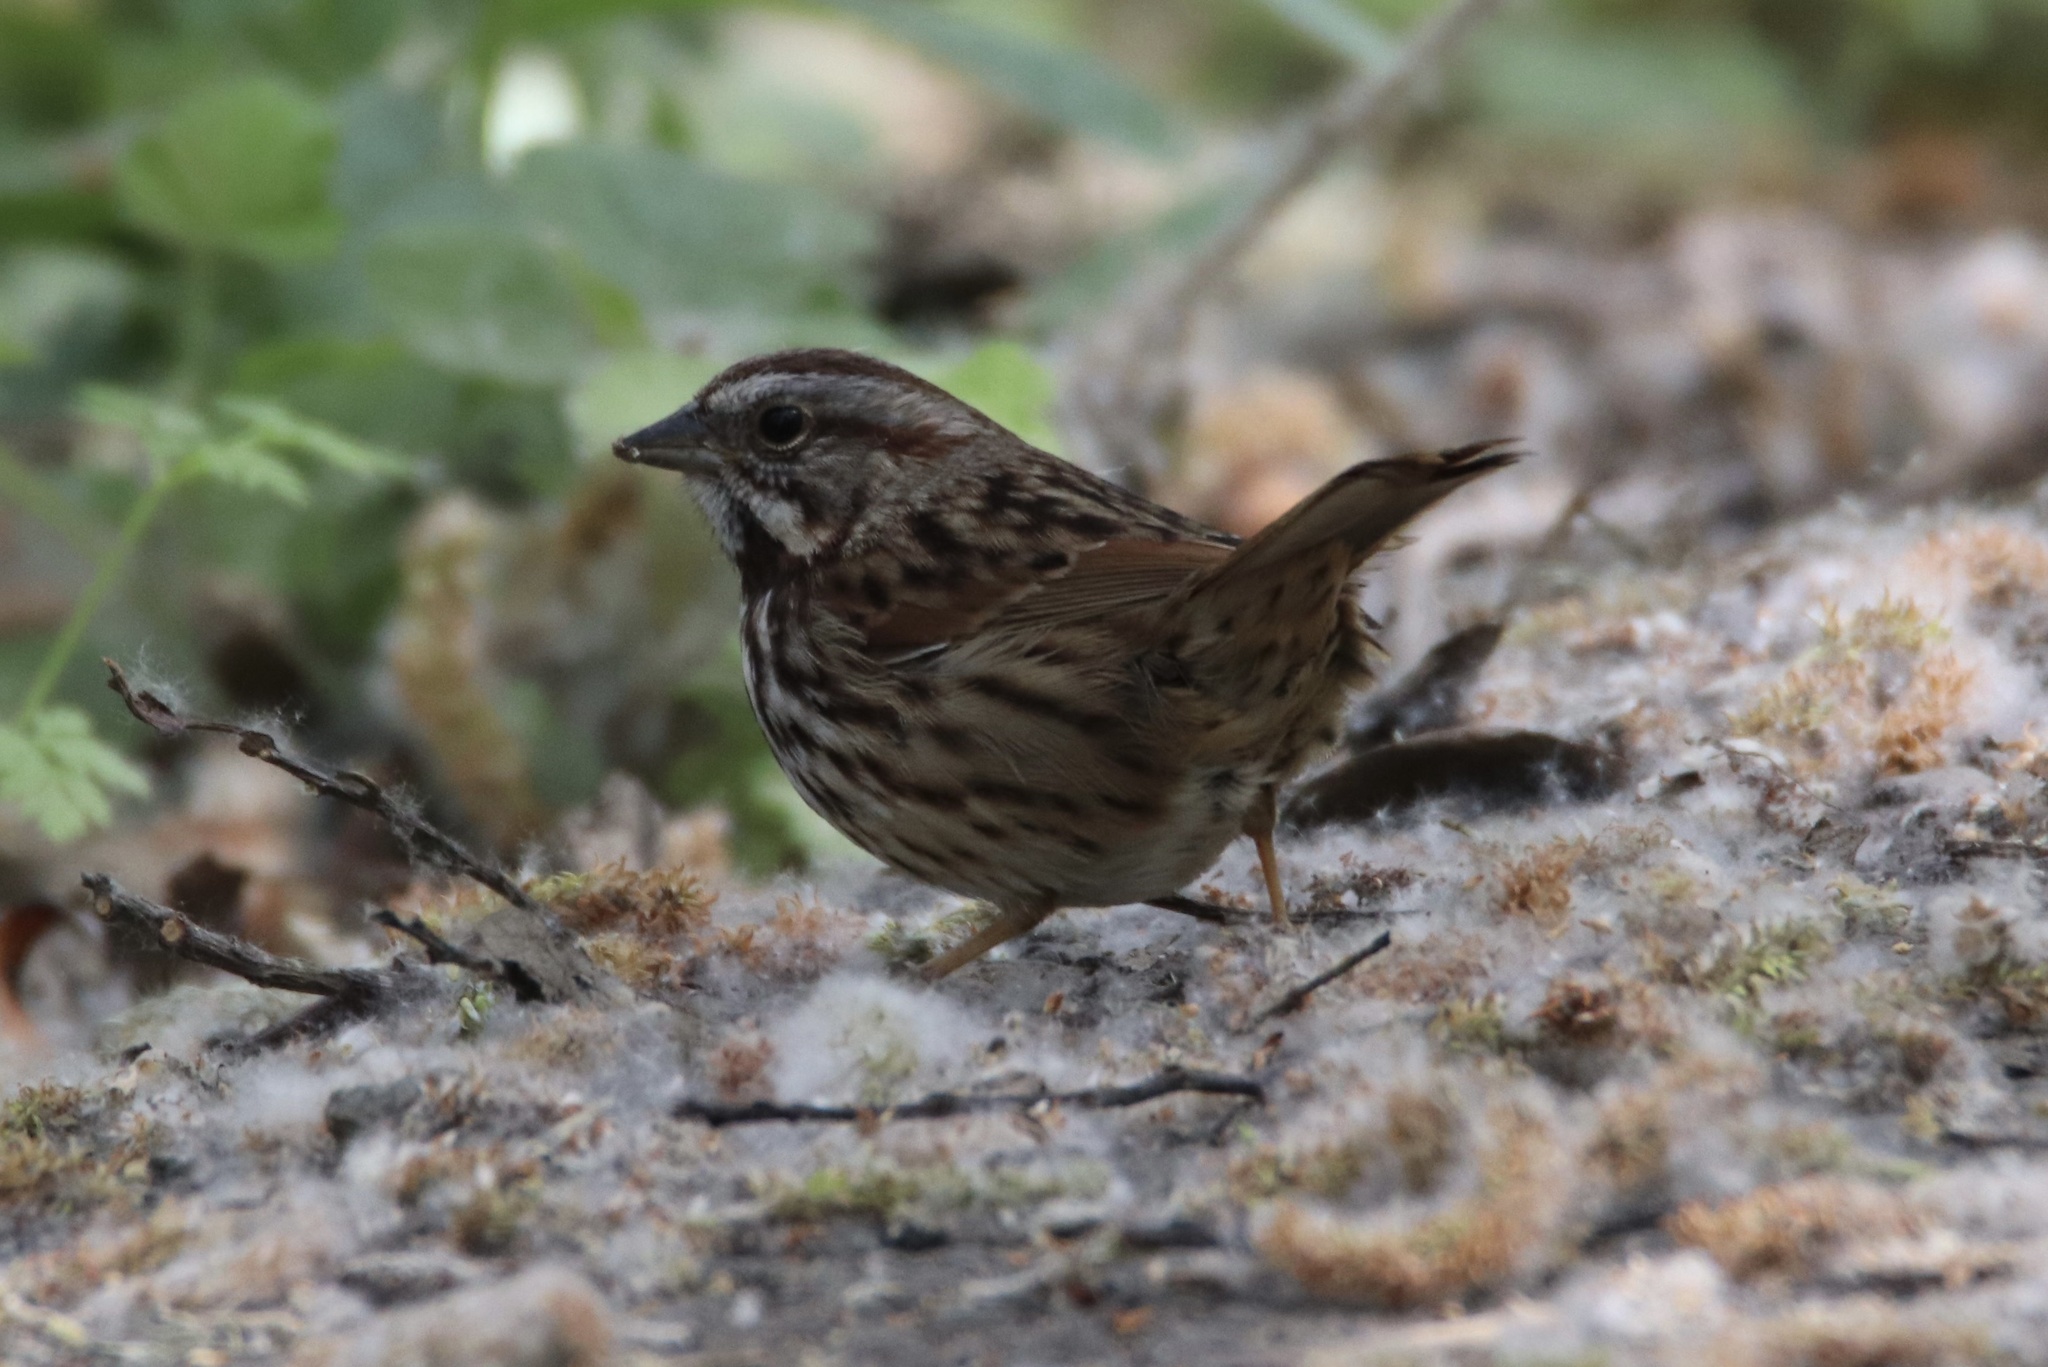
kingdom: Animalia
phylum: Chordata
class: Aves
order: Passeriformes
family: Passerellidae
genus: Melospiza
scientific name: Melospiza melodia
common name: Song sparrow
